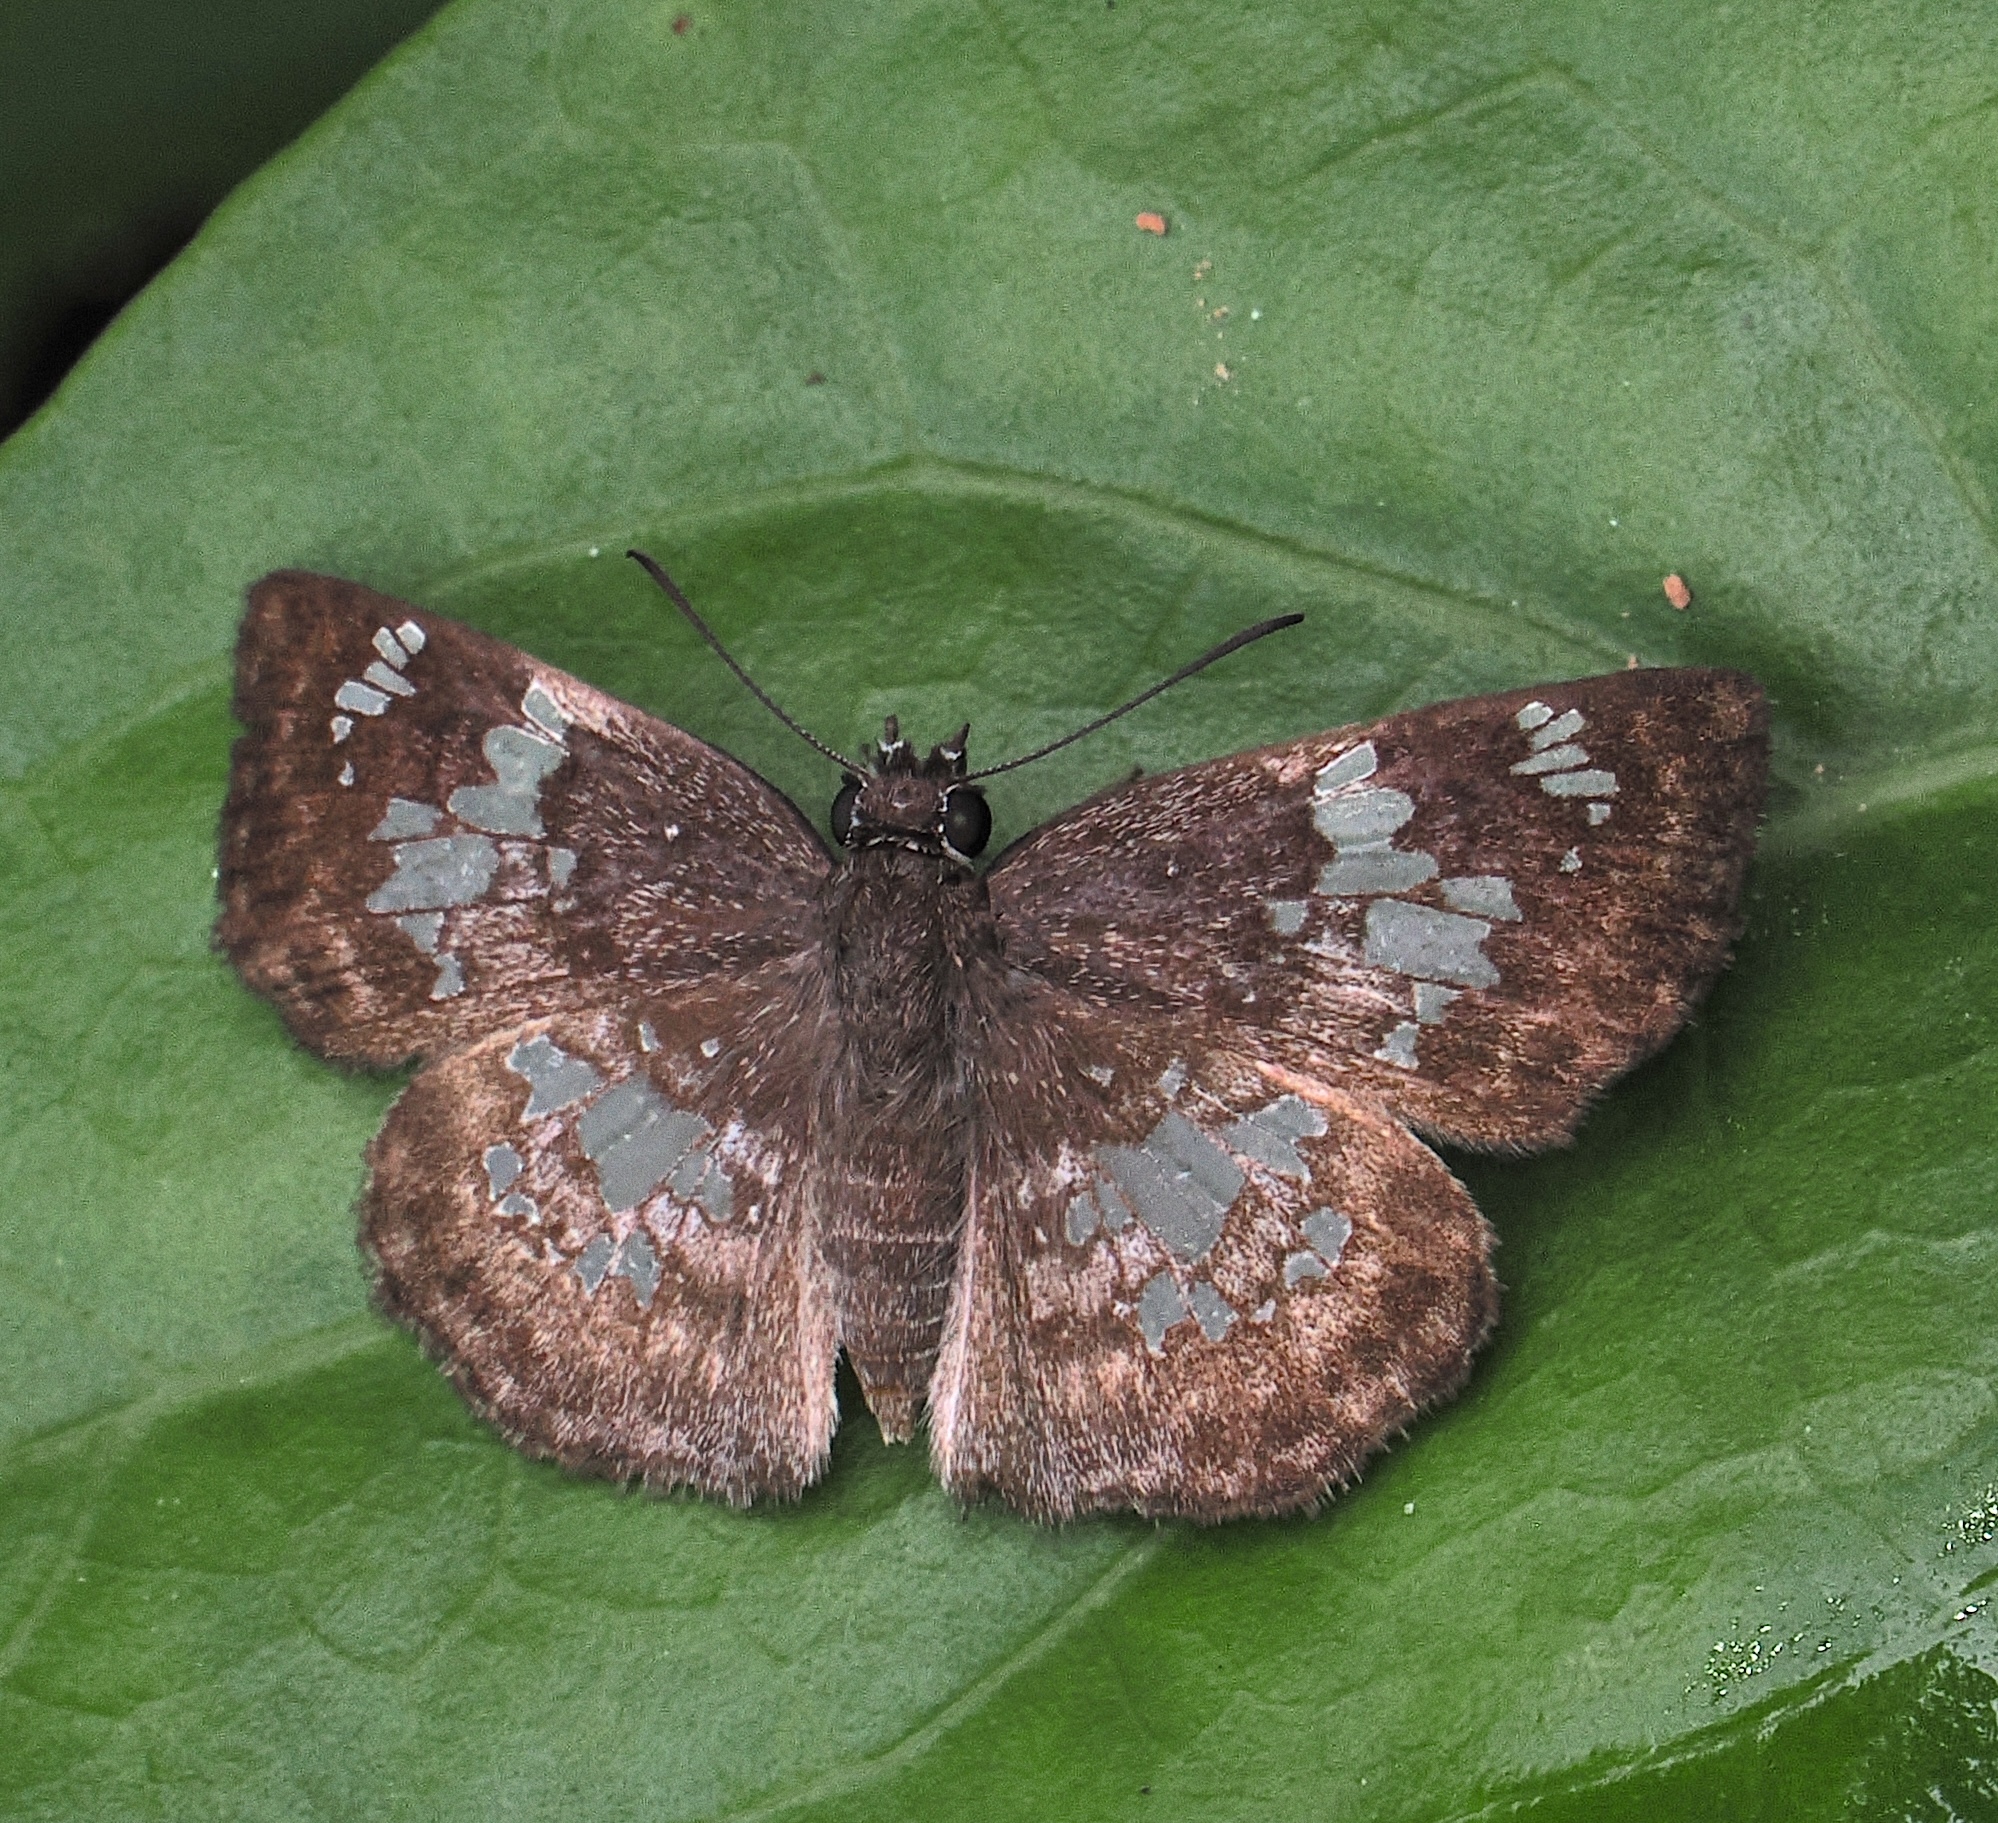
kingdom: Animalia
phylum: Arthropoda
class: Insecta
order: Lepidoptera
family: Hesperiidae
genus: Xenophanes
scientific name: Xenophanes tryxus
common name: Glassy-winged skipper
